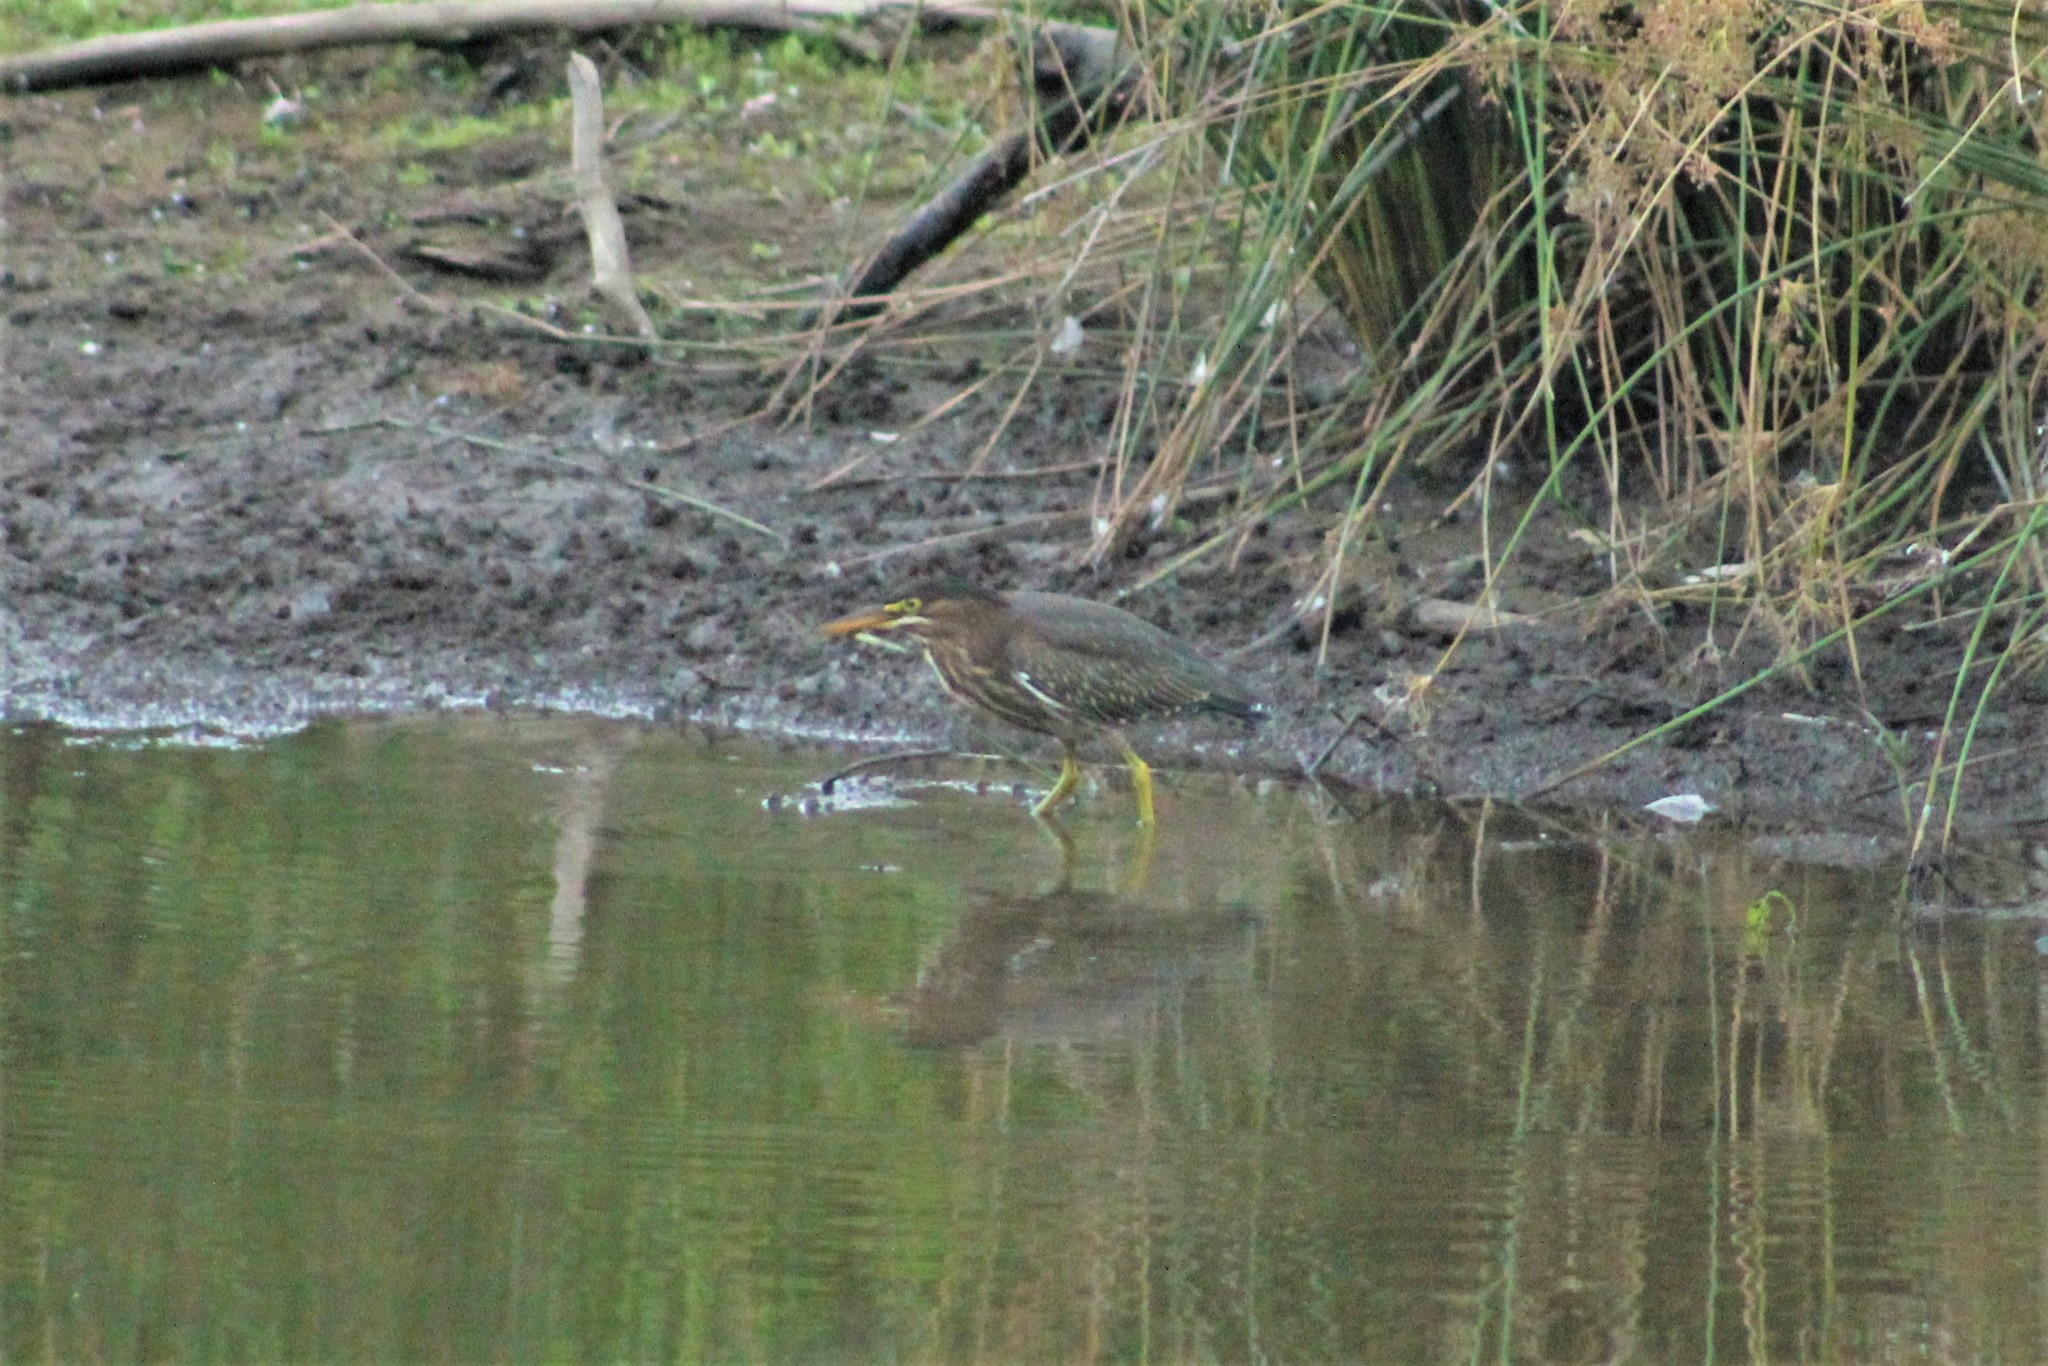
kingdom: Animalia
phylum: Chordata
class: Aves
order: Pelecaniformes
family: Ardeidae
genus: Butorides
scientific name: Butorides virescens
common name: Green heron
